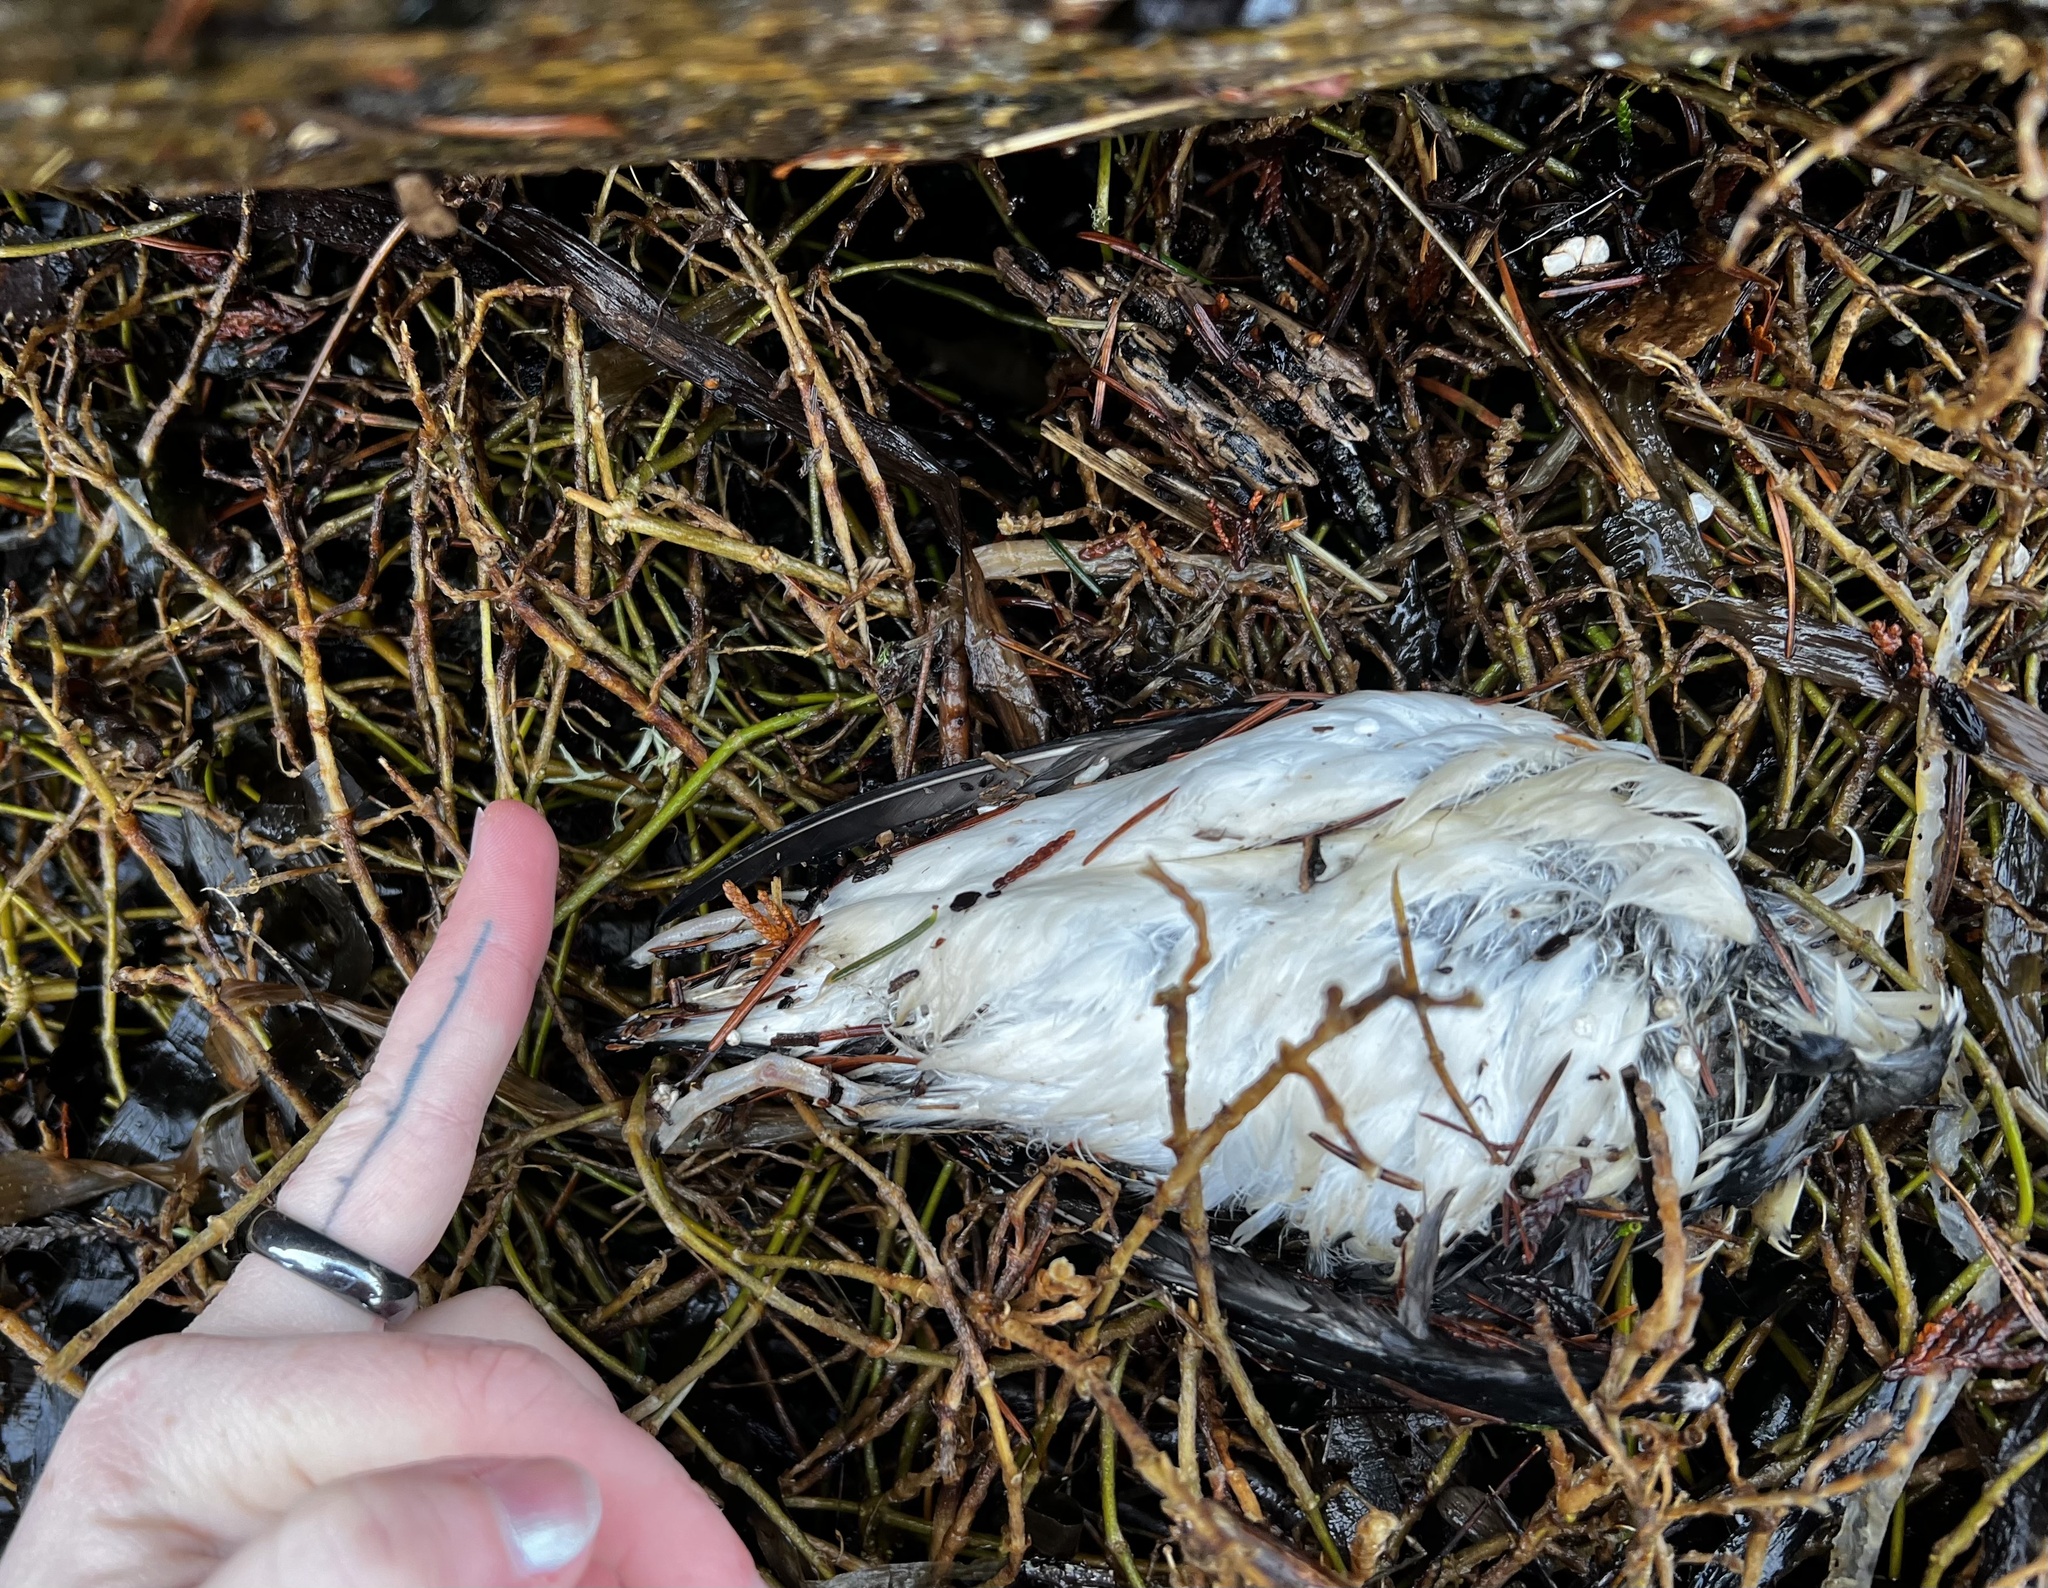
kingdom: Animalia
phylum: Chordata
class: Aves
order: Charadriiformes
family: Alcidae
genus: Brachyramphus
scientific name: Brachyramphus marmoratus
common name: Marbled murrelet
